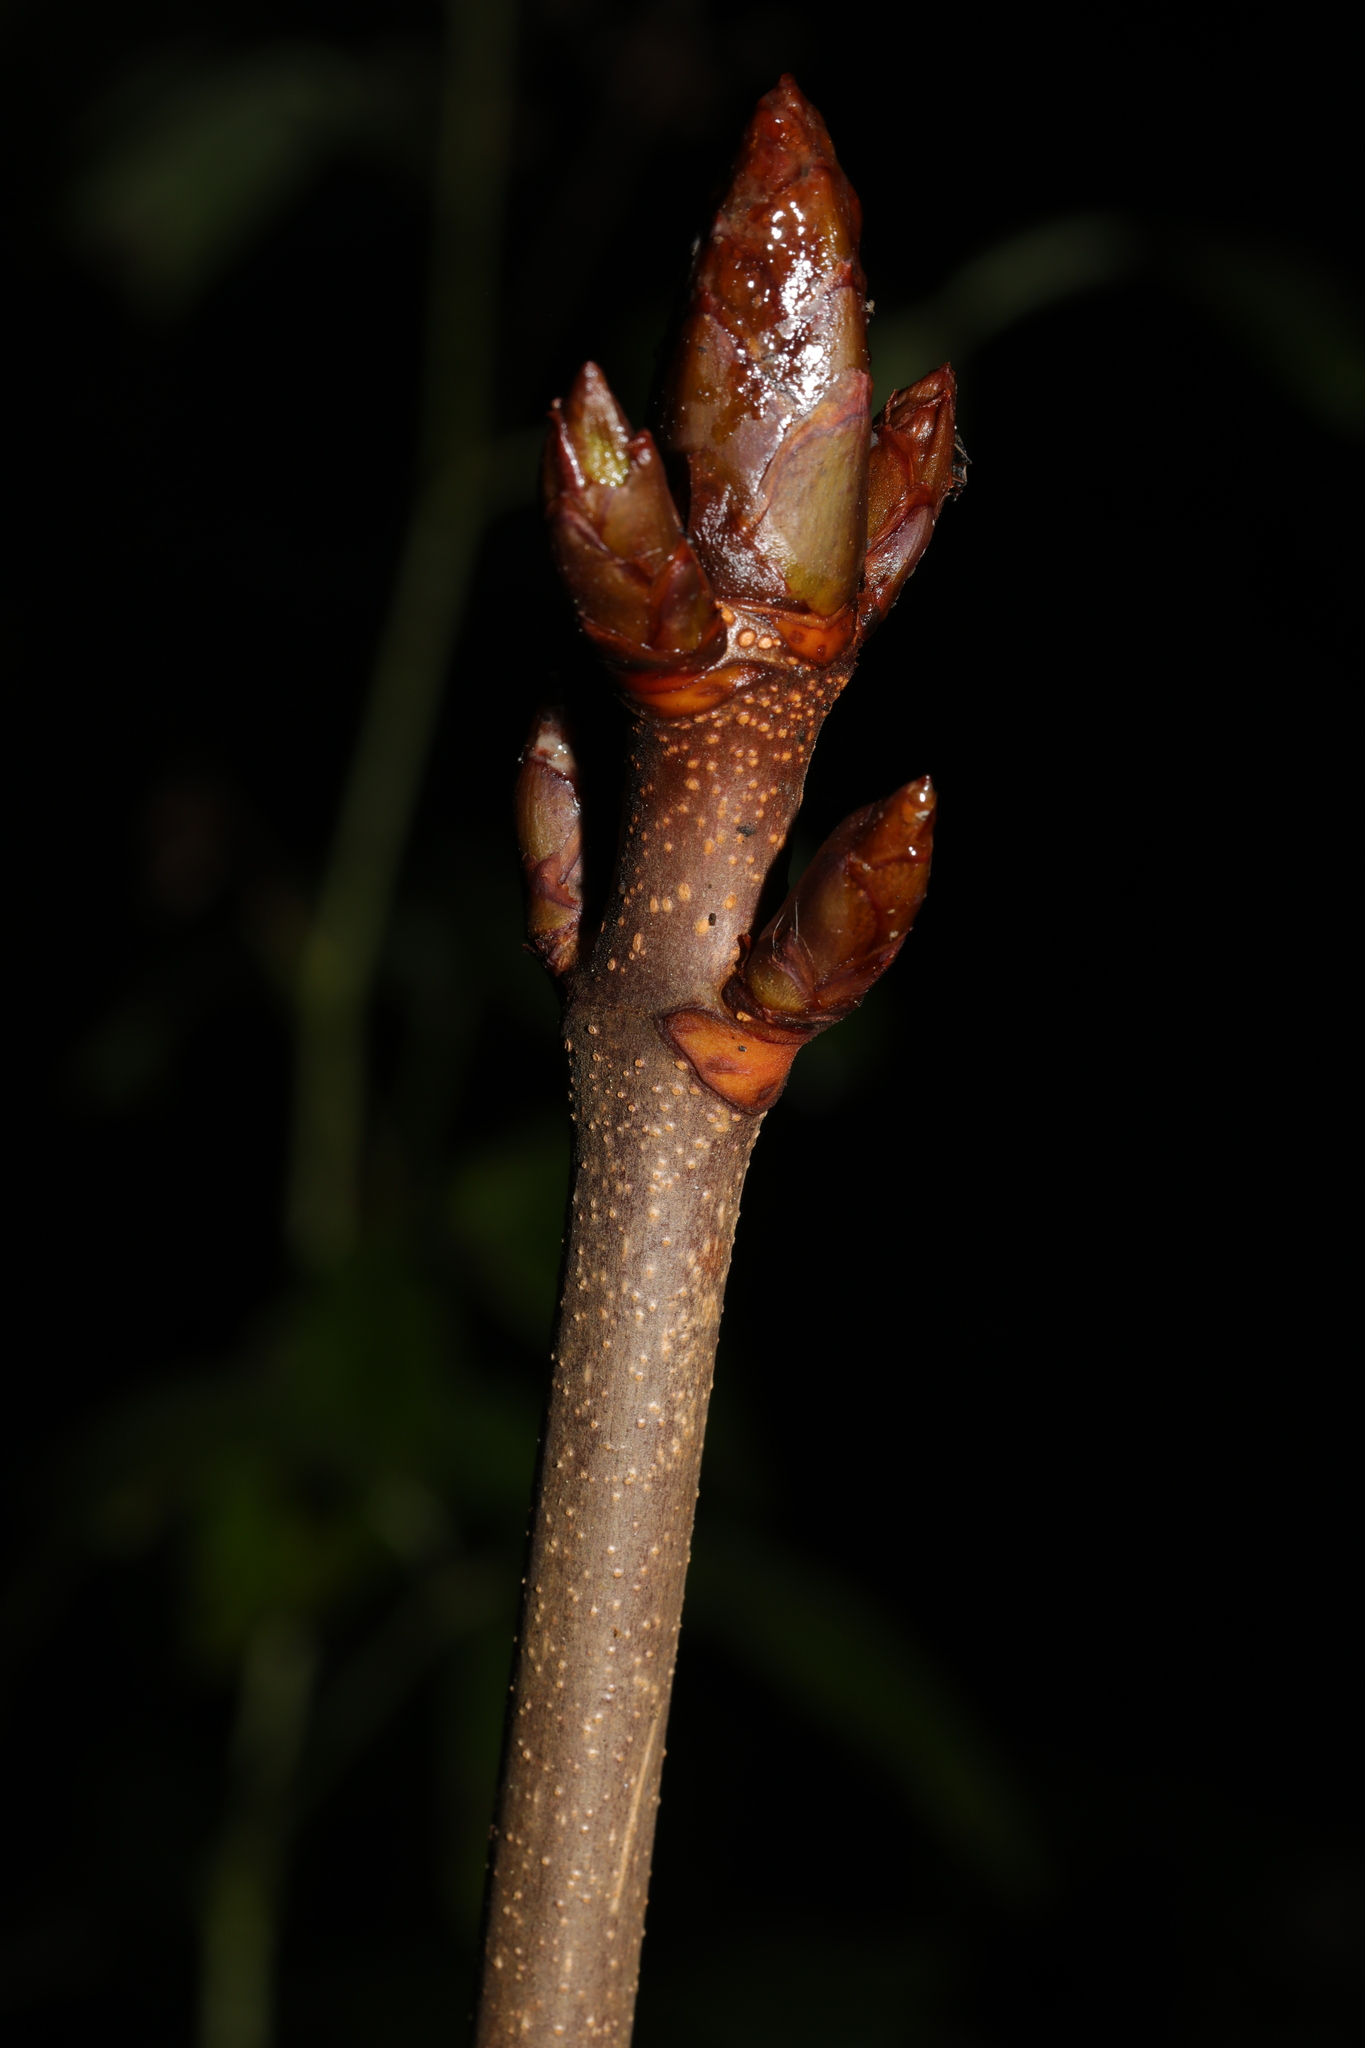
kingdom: Plantae
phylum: Tracheophyta
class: Magnoliopsida
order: Sapindales
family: Sapindaceae
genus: Aesculus
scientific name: Aesculus hippocastanum
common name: Horse-chestnut
